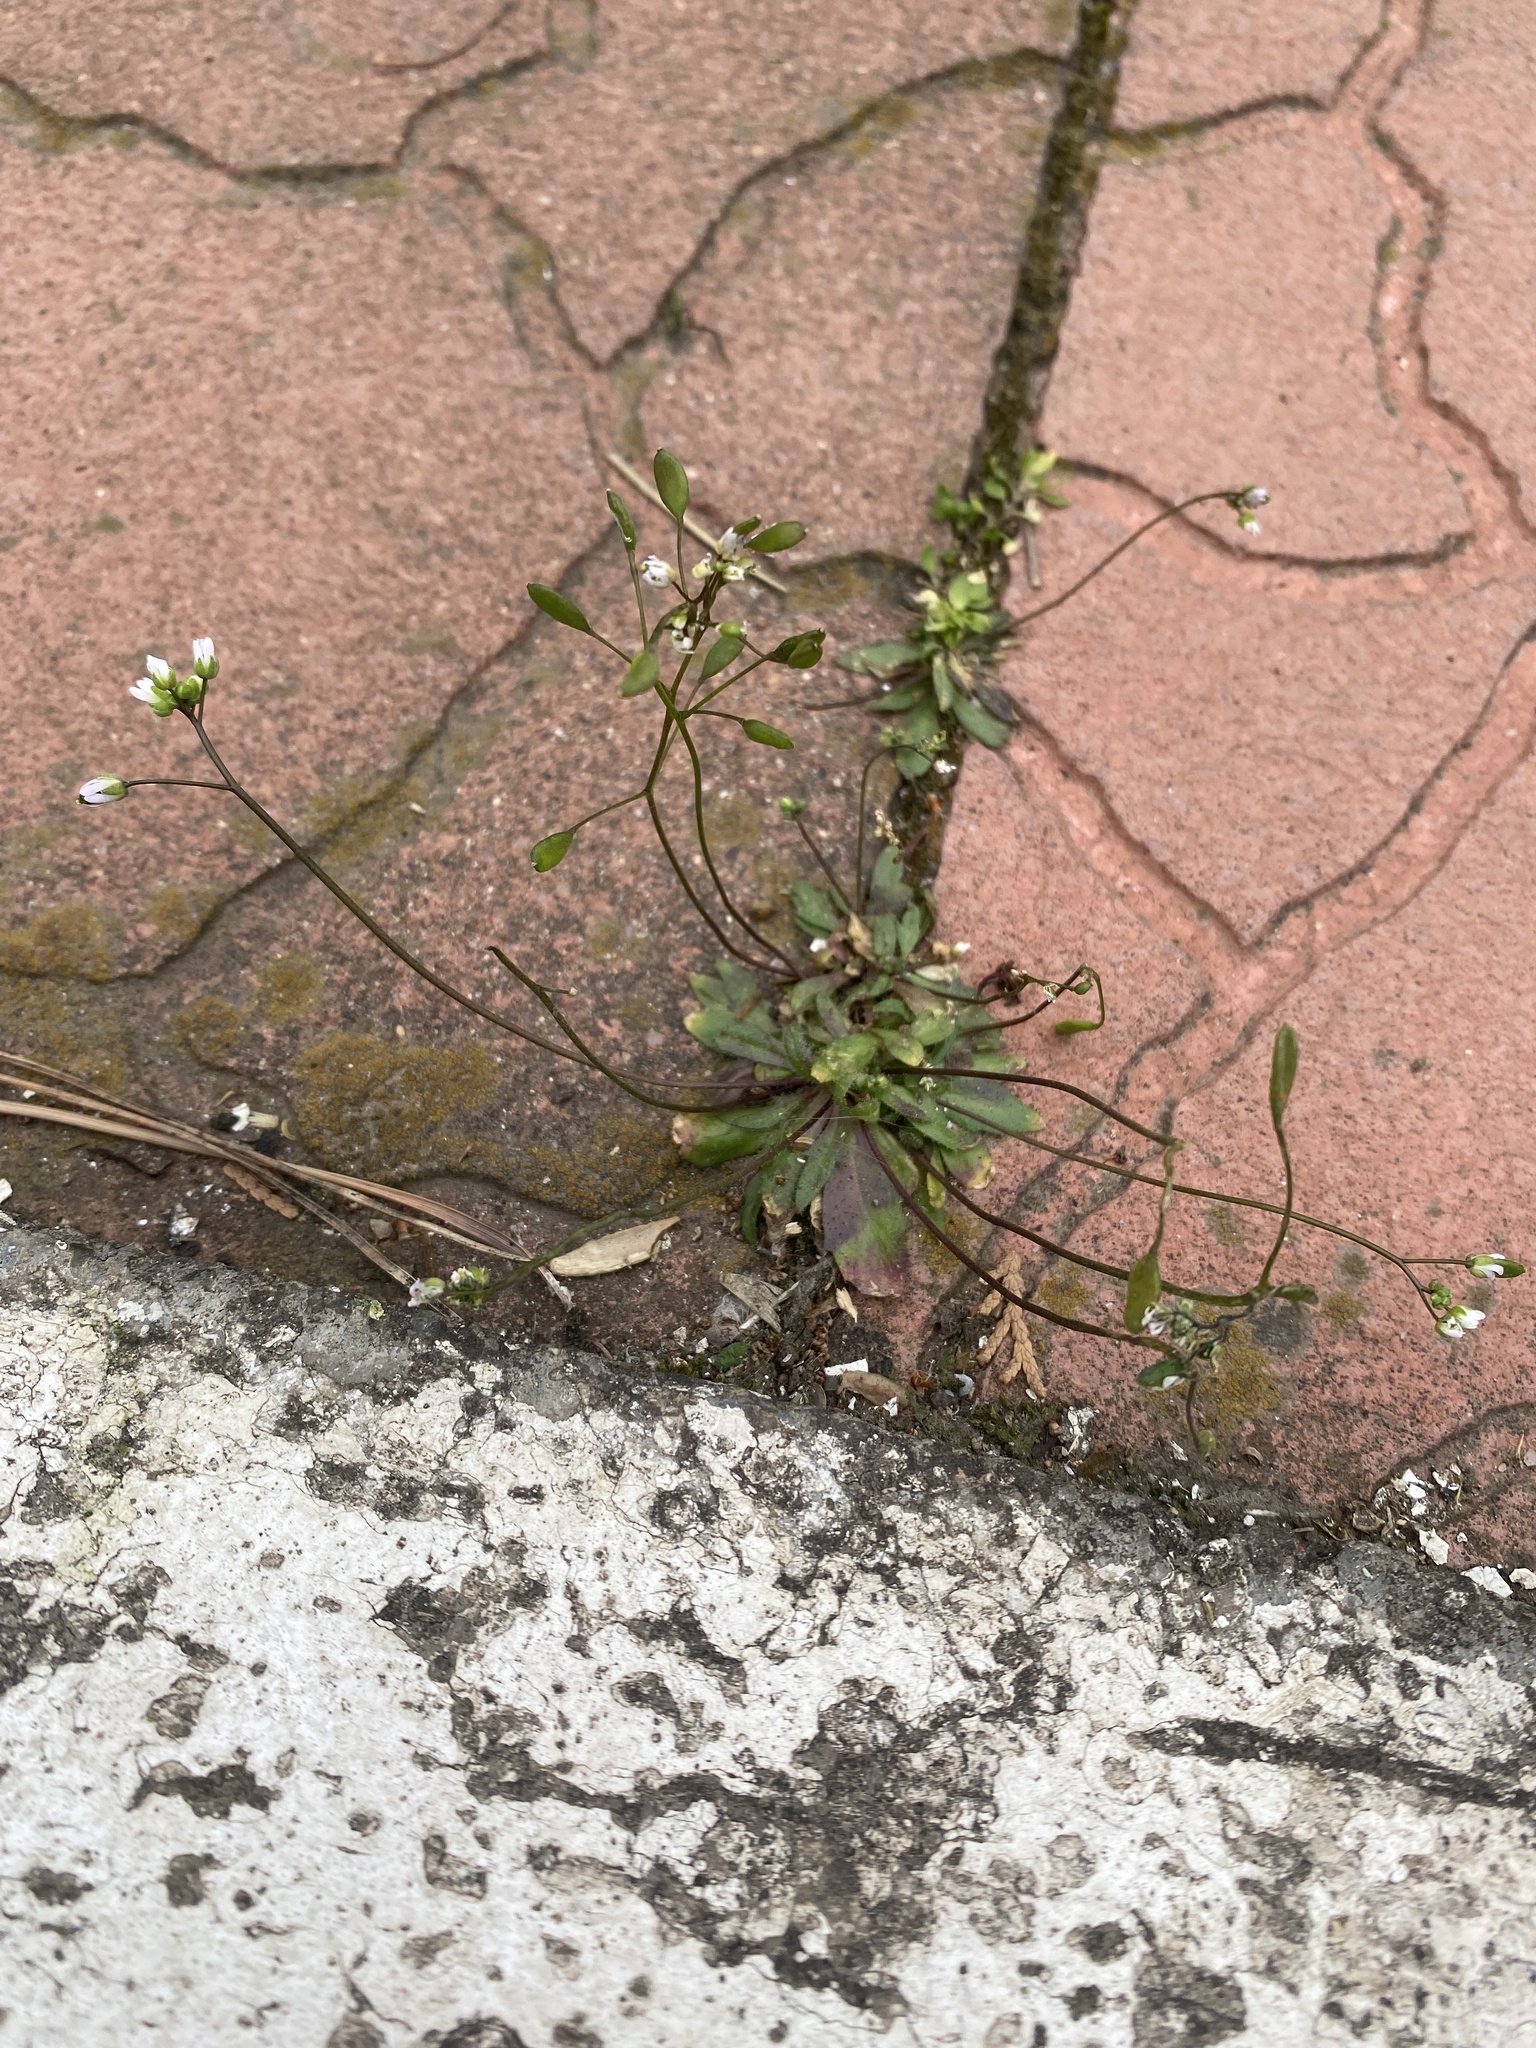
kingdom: Plantae
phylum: Tracheophyta
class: Magnoliopsida
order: Brassicales
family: Brassicaceae
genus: Draba
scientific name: Draba verna
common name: Spring draba
